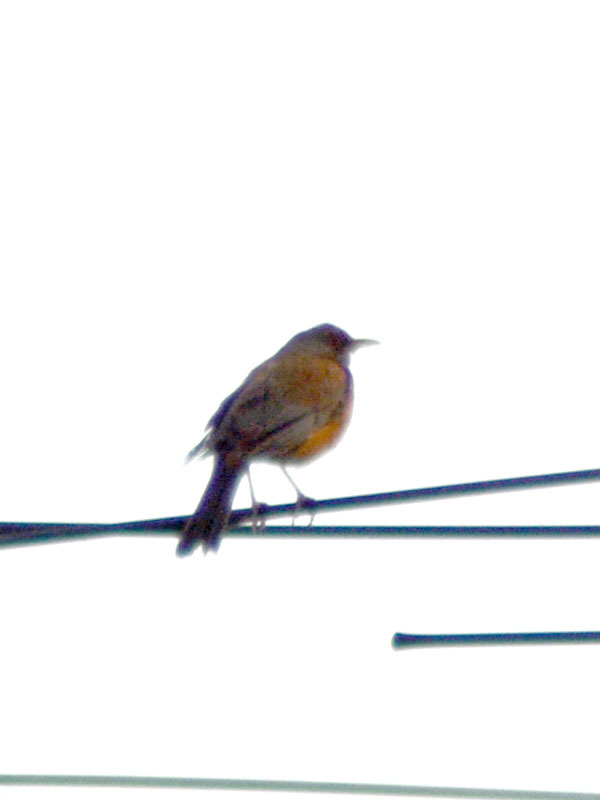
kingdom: Animalia
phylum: Chordata
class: Aves
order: Passeriformes
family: Turdidae
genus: Turdus
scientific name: Turdus rufopalliatus
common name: Rufous-backed robin
